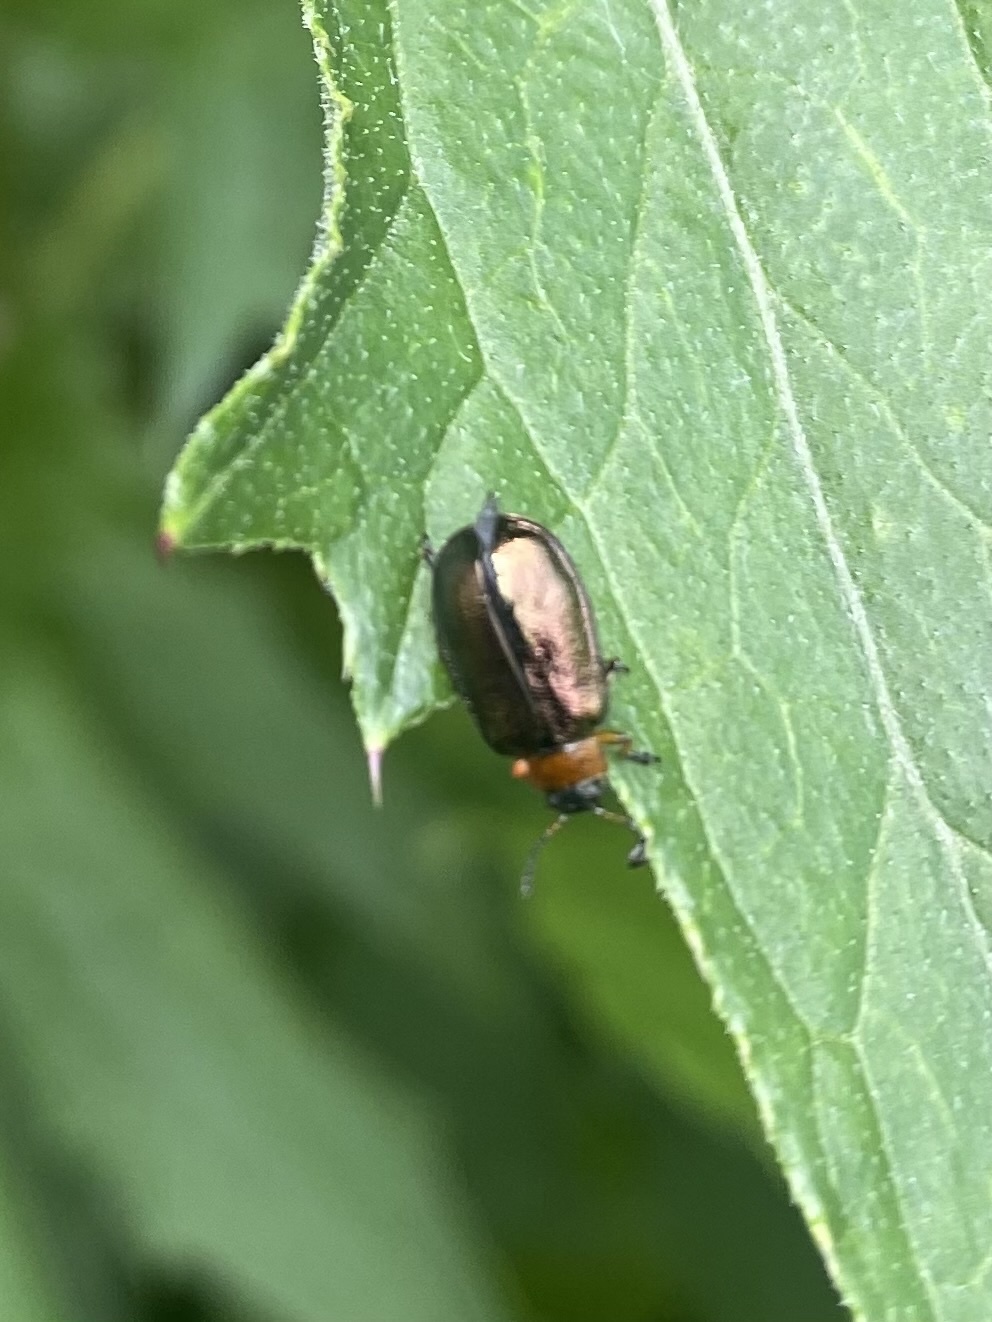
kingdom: Animalia
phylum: Arthropoda
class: Insecta
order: Coleoptera
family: Chrysomelidae
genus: Gastrolina
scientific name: Gastrolina Chrysomela peltoidea
